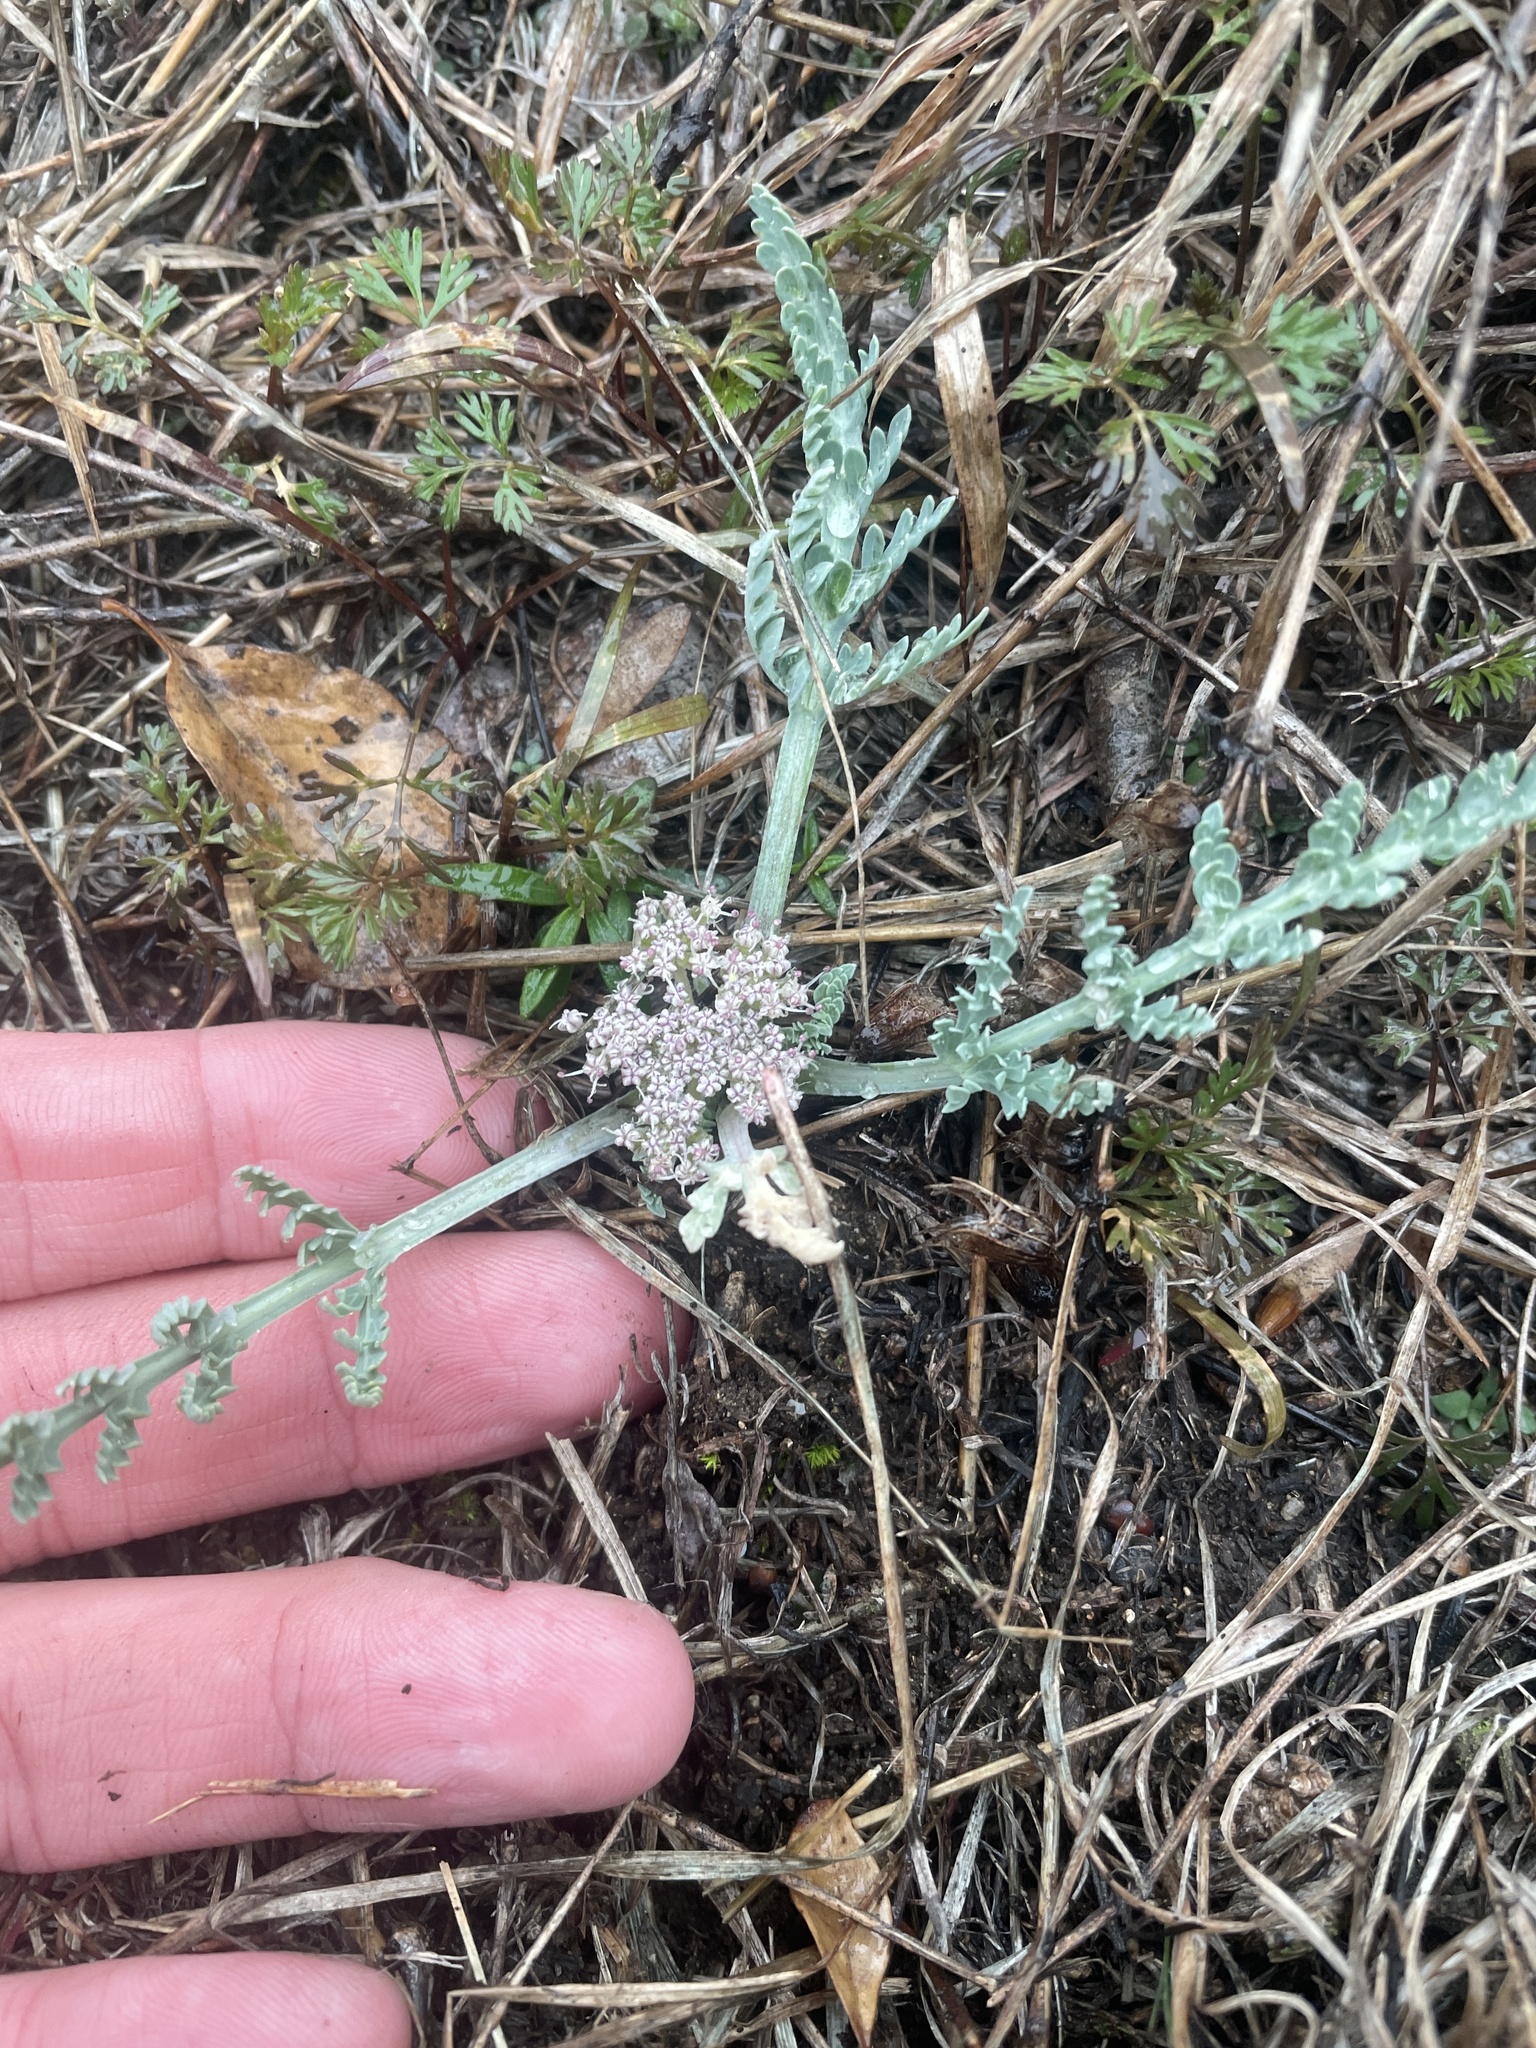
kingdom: Plantae
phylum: Tracheophyta
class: Magnoliopsida
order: Apiales
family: Apiaceae
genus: Vesper
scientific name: Vesper macrorhizus
